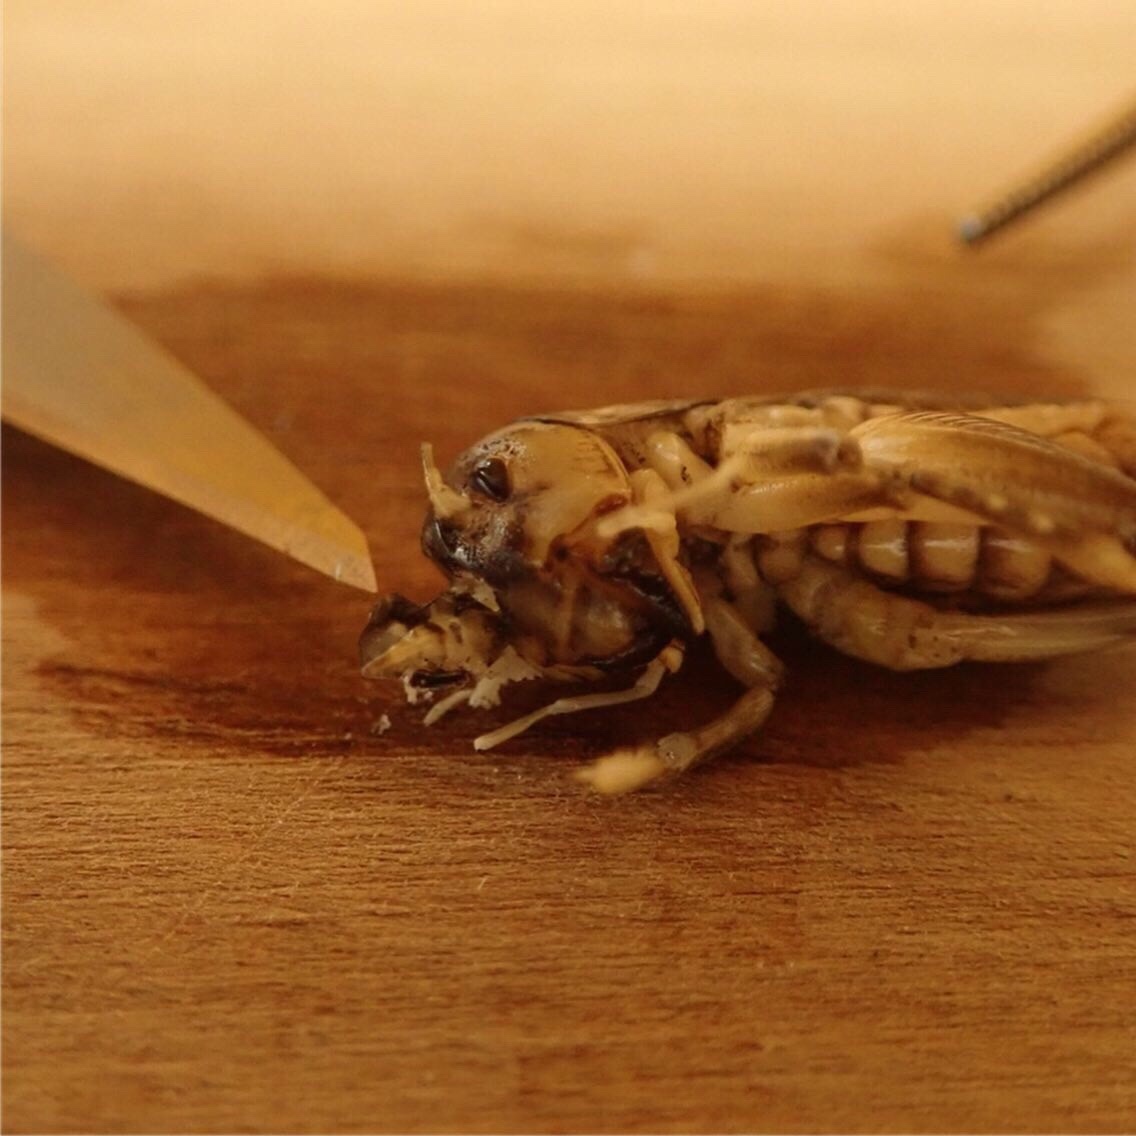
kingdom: Animalia
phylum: Arthropoda
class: Insecta
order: Orthoptera
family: Anostostomatidae
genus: Hemiandrus
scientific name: Hemiandrus bilobatus
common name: Wine wētā
